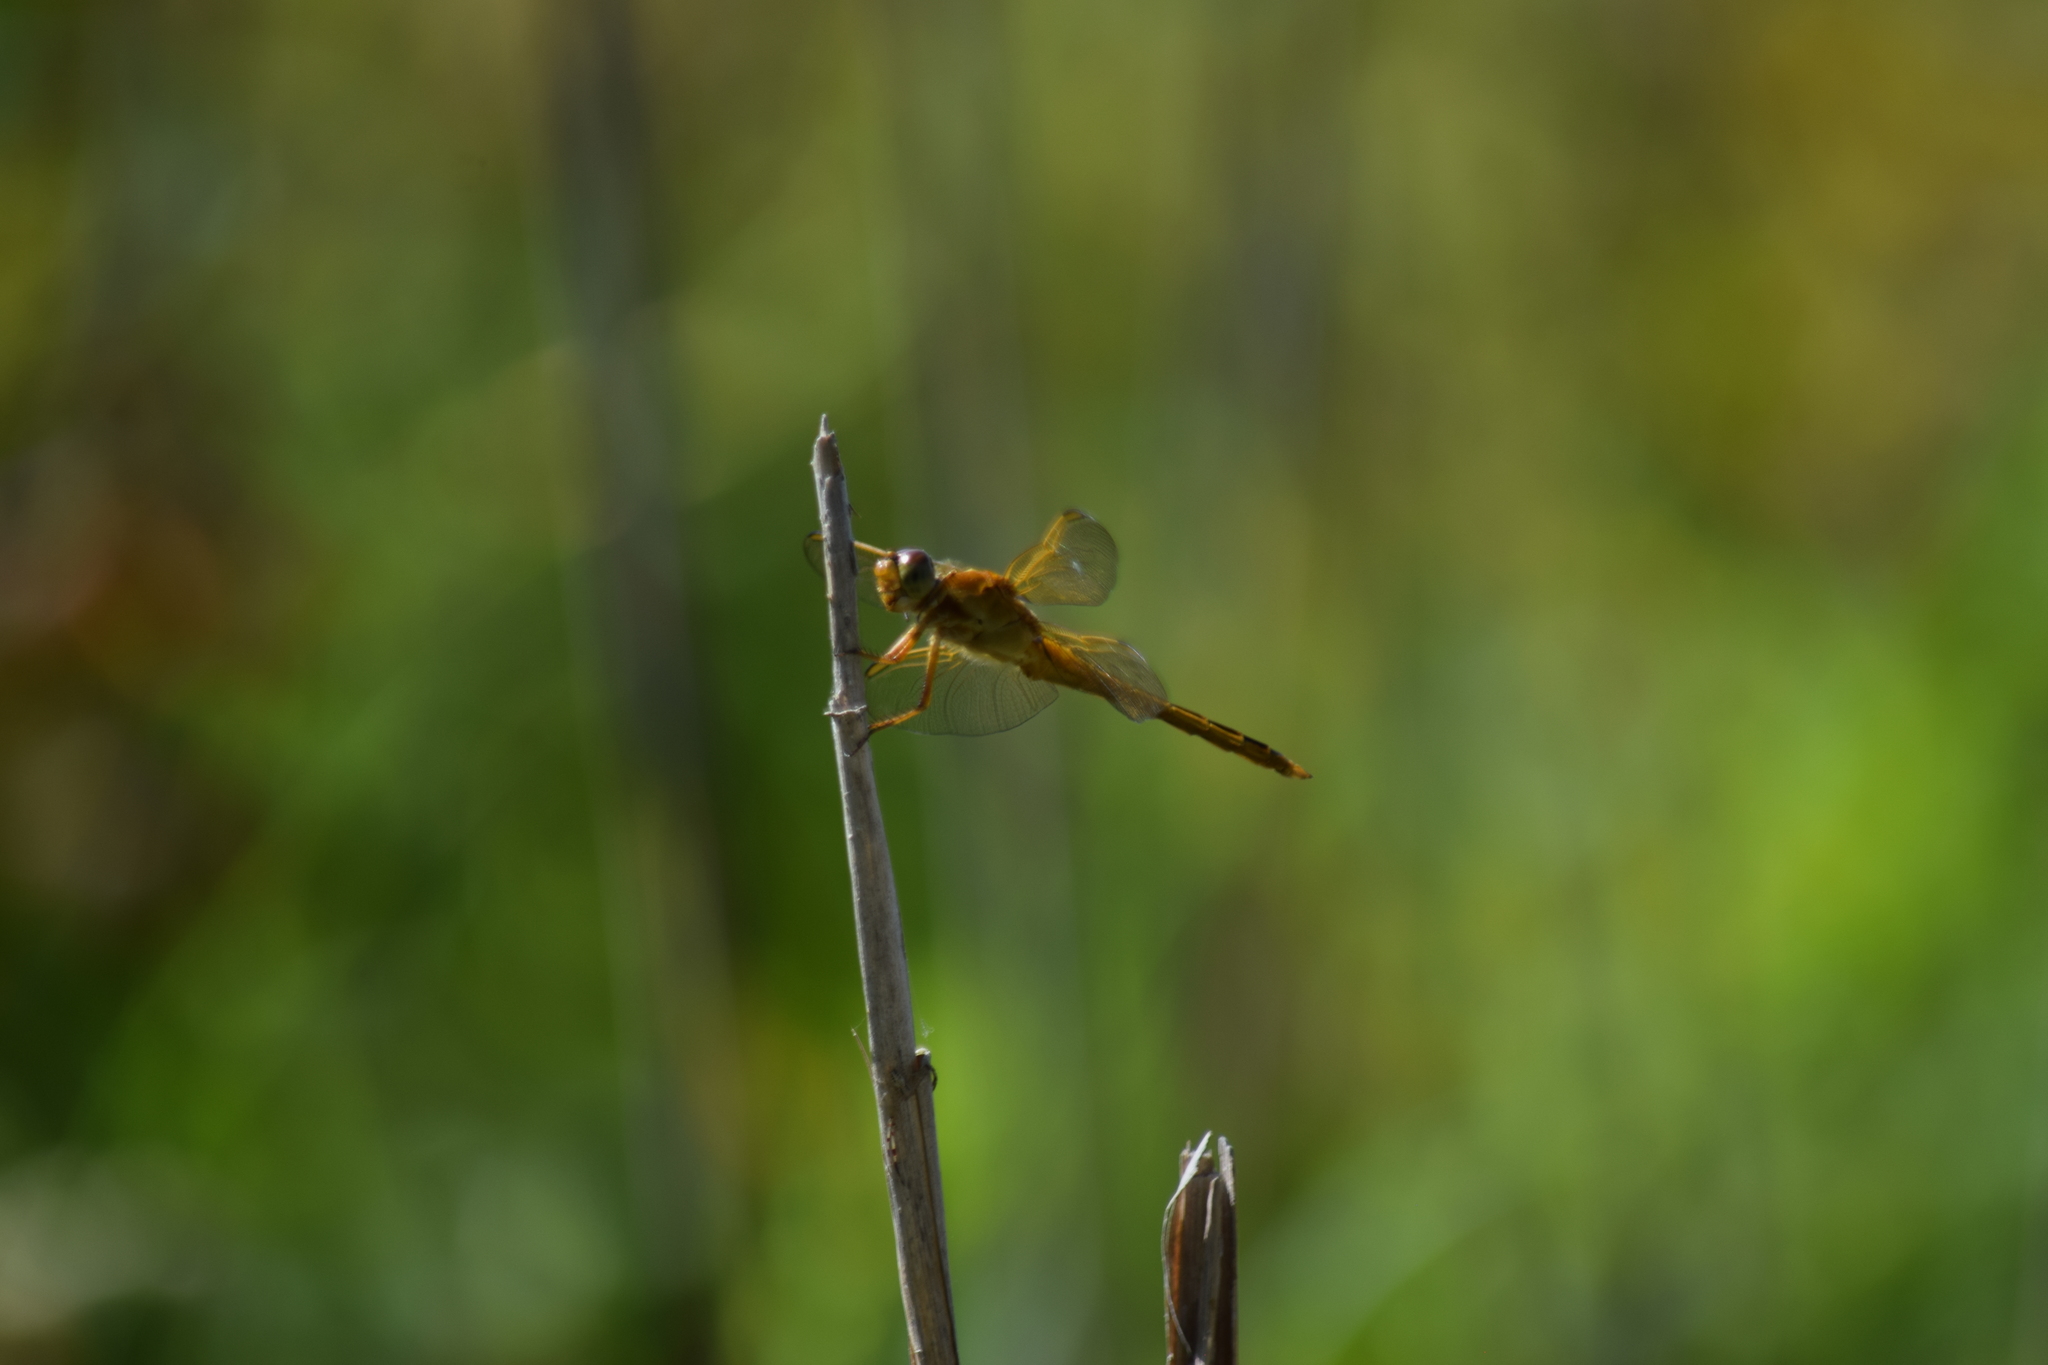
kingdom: Animalia
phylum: Arthropoda
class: Insecta
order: Odonata
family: Libellulidae
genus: Libellula
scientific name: Libellula needhami
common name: Needham's skimmer
